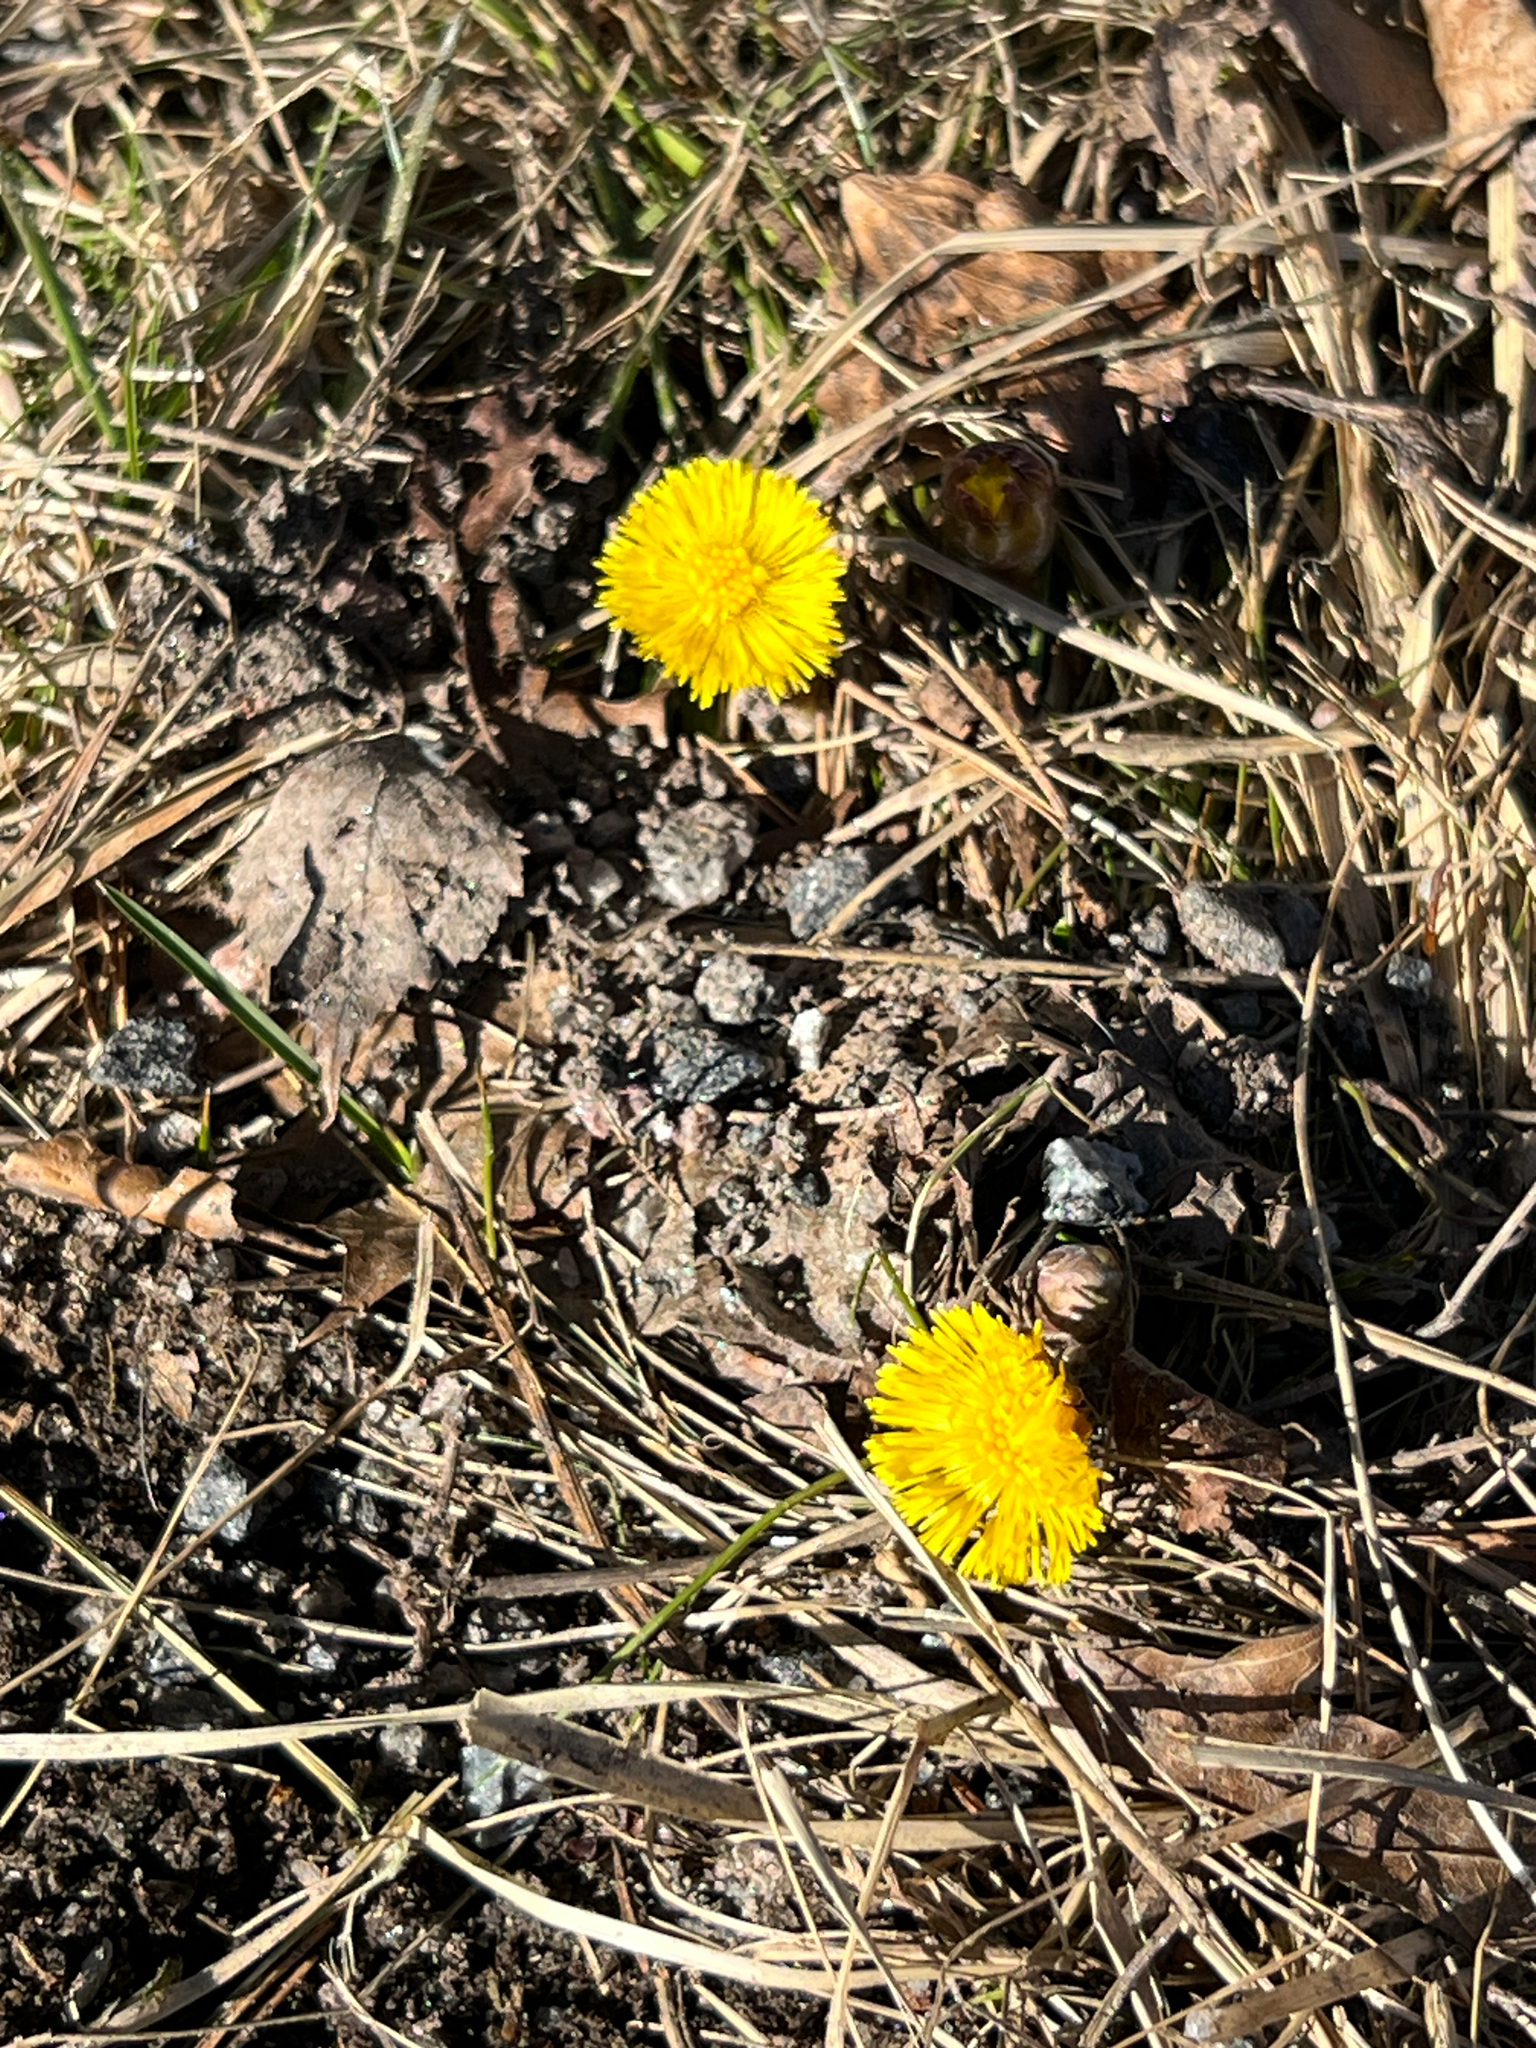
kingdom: Plantae
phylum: Tracheophyta
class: Magnoliopsida
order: Asterales
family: Asteraceae
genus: Tussilago
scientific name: Tussilago farfara
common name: Coltsfoot
